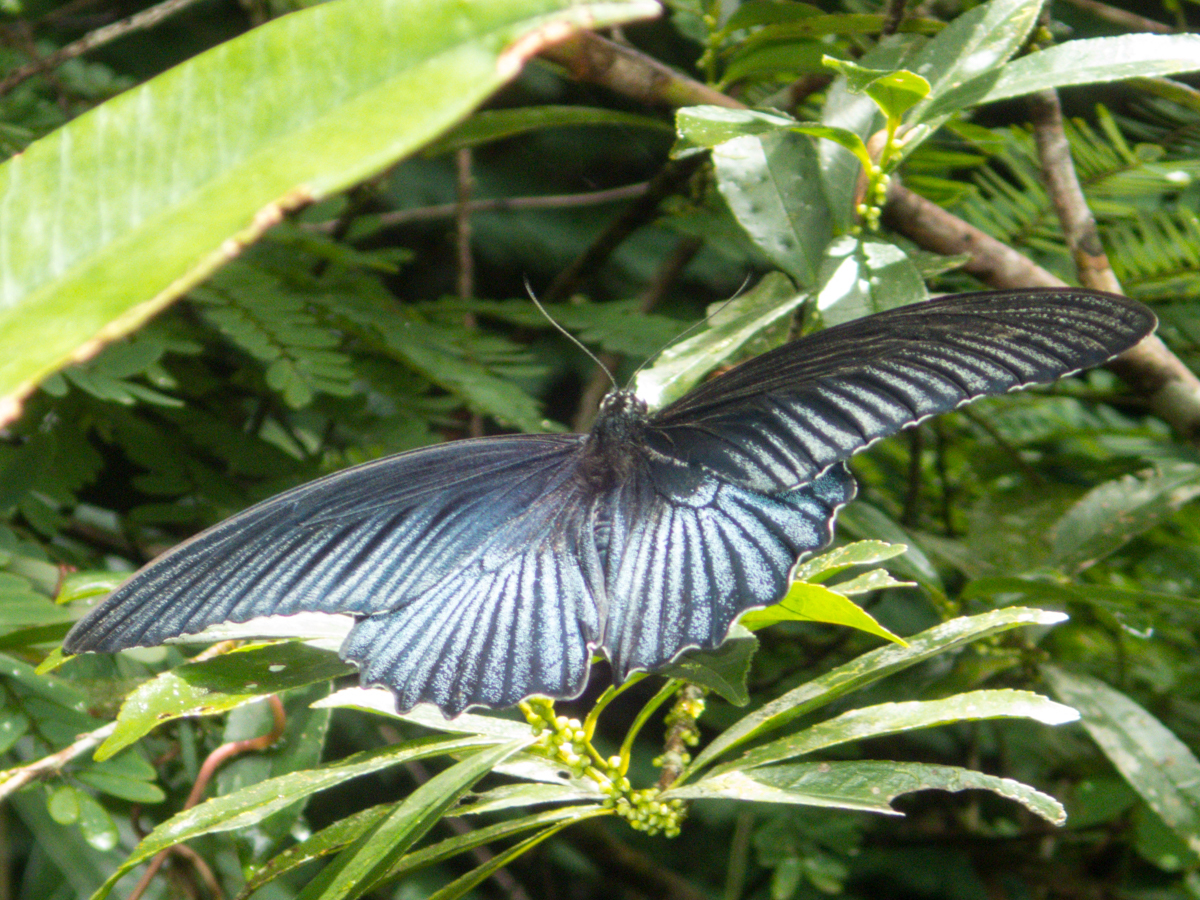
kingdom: Animalia
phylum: Arthropoda
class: Insecta
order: Lepidoptera
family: Papilionidae
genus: Papilio
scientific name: Papilio memnon
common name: Great mormon
